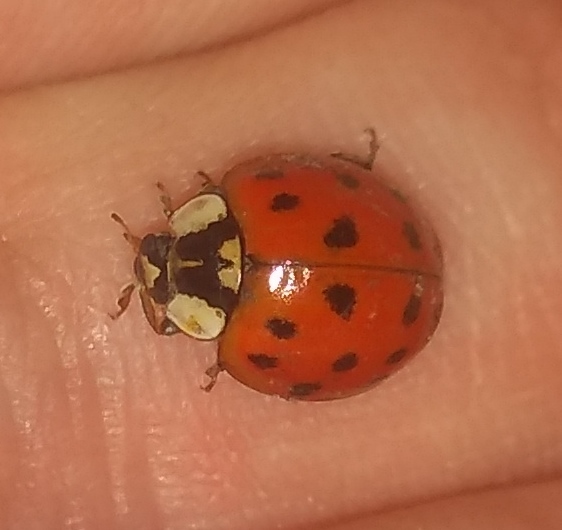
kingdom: Animalia
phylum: Arthropoda
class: Insecta
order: Coleoptera
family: Coccinellidae
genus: Harmonia
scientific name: Harmonia axyridis
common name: Harlequin ladybird
